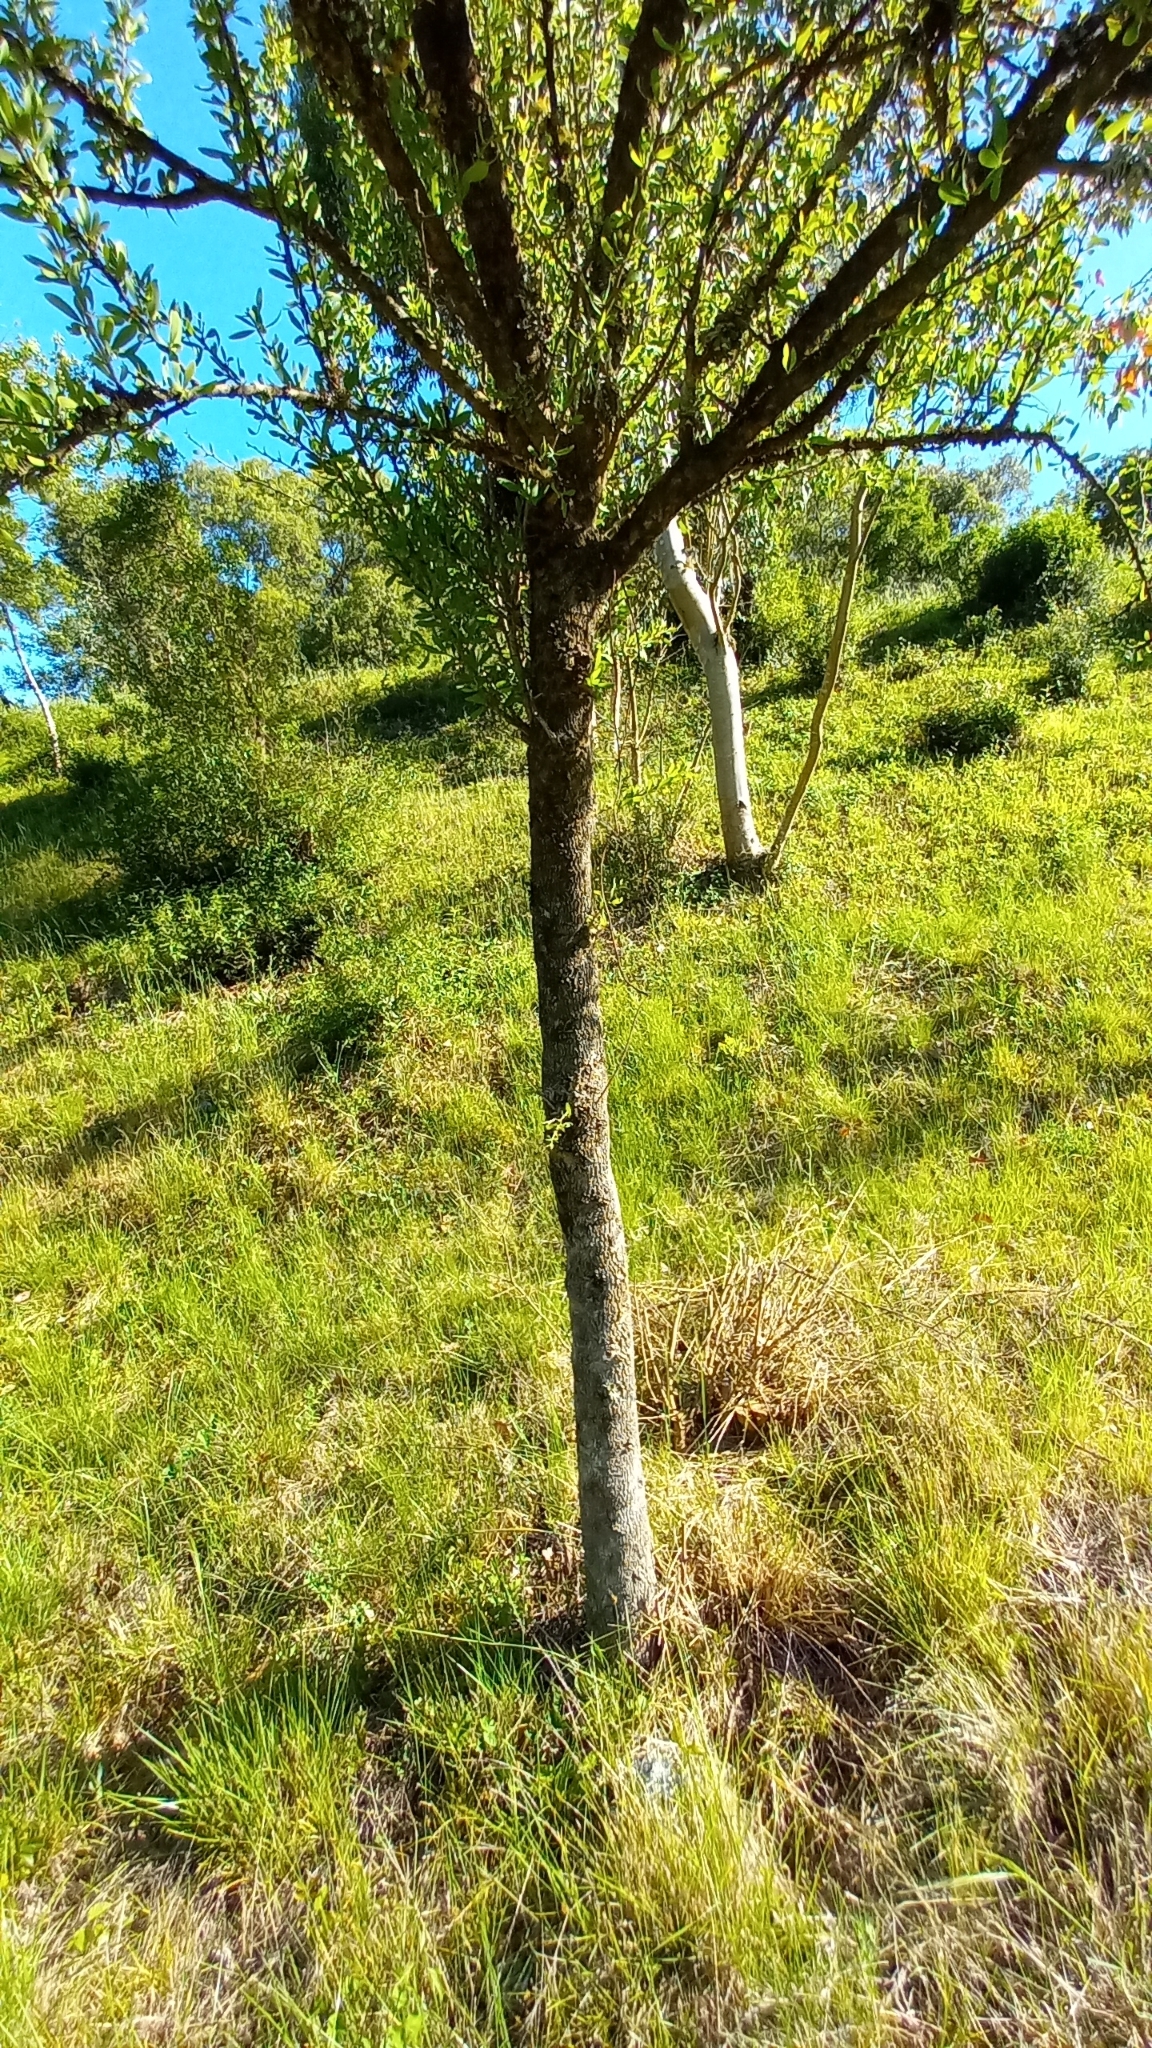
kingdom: Plantae
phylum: Tracheophyta
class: Magnoliopsida
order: Santalales
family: Cervantesiaceae
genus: Acanthosyris
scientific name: Acanthosyris spinescens
